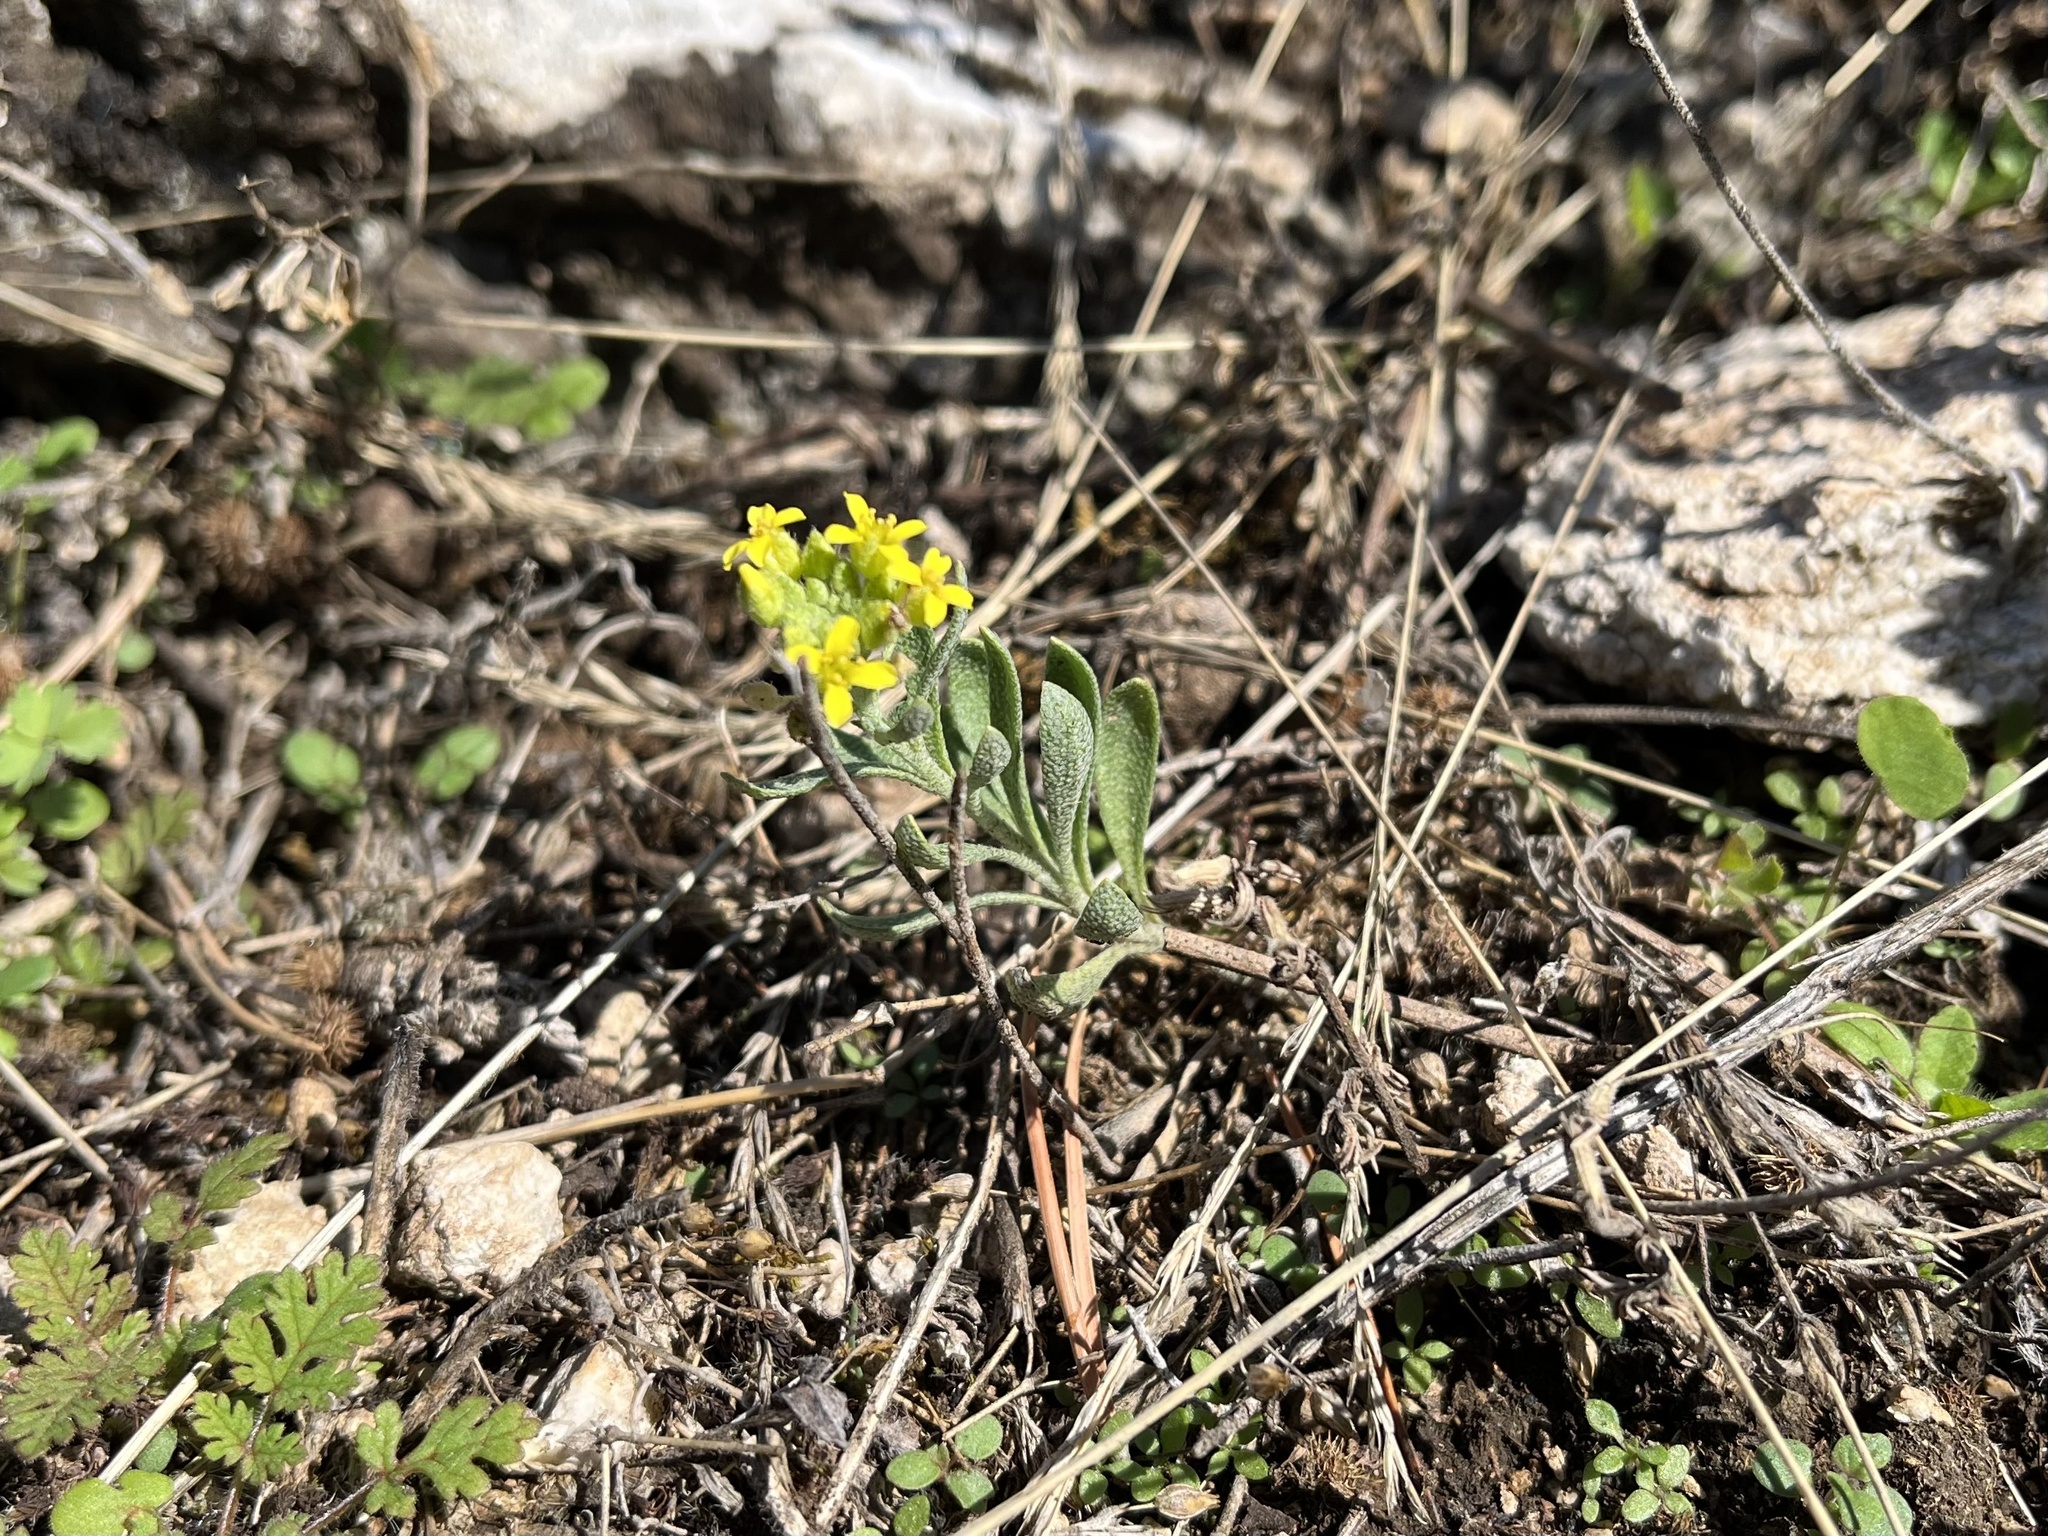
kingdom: Plantae
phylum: Tracheophyta
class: Magnoliopsida
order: Brassicales
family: Brassicaceae
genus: Alyssum
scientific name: Alyssum gmelinii
